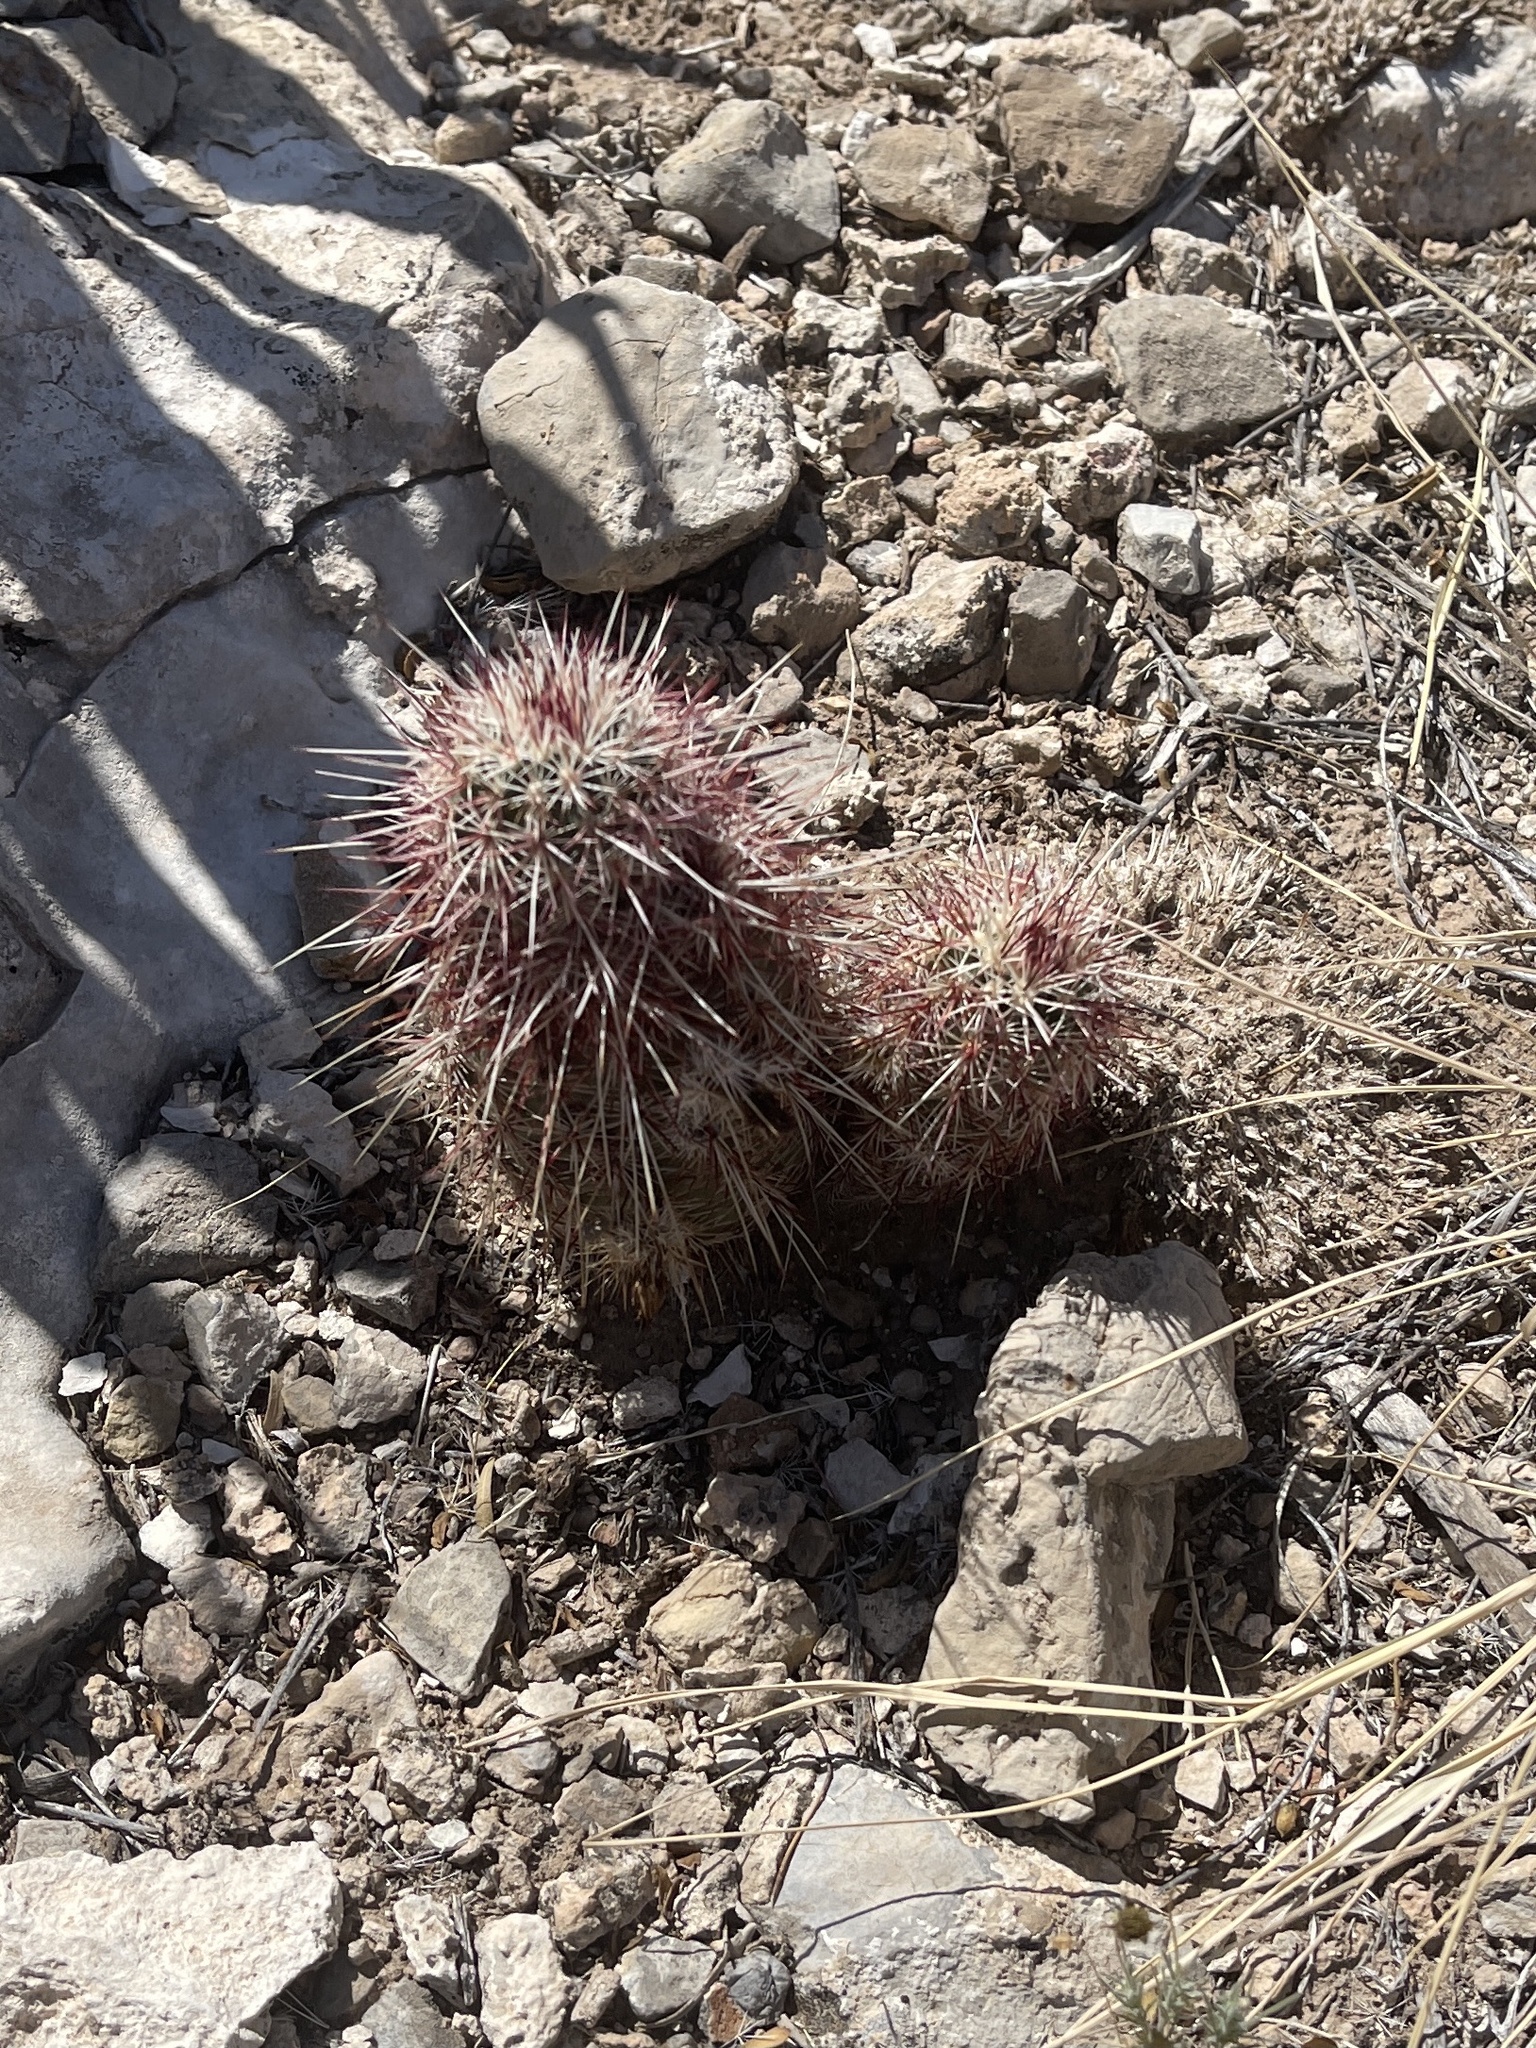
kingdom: Plantae
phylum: Tracheophyta
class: Magnoliopsida
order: Caryophyllales
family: Cactaceae
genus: Echinocereus
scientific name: Echinocereus viridiflorus
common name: Nylon hedgehog cactus
